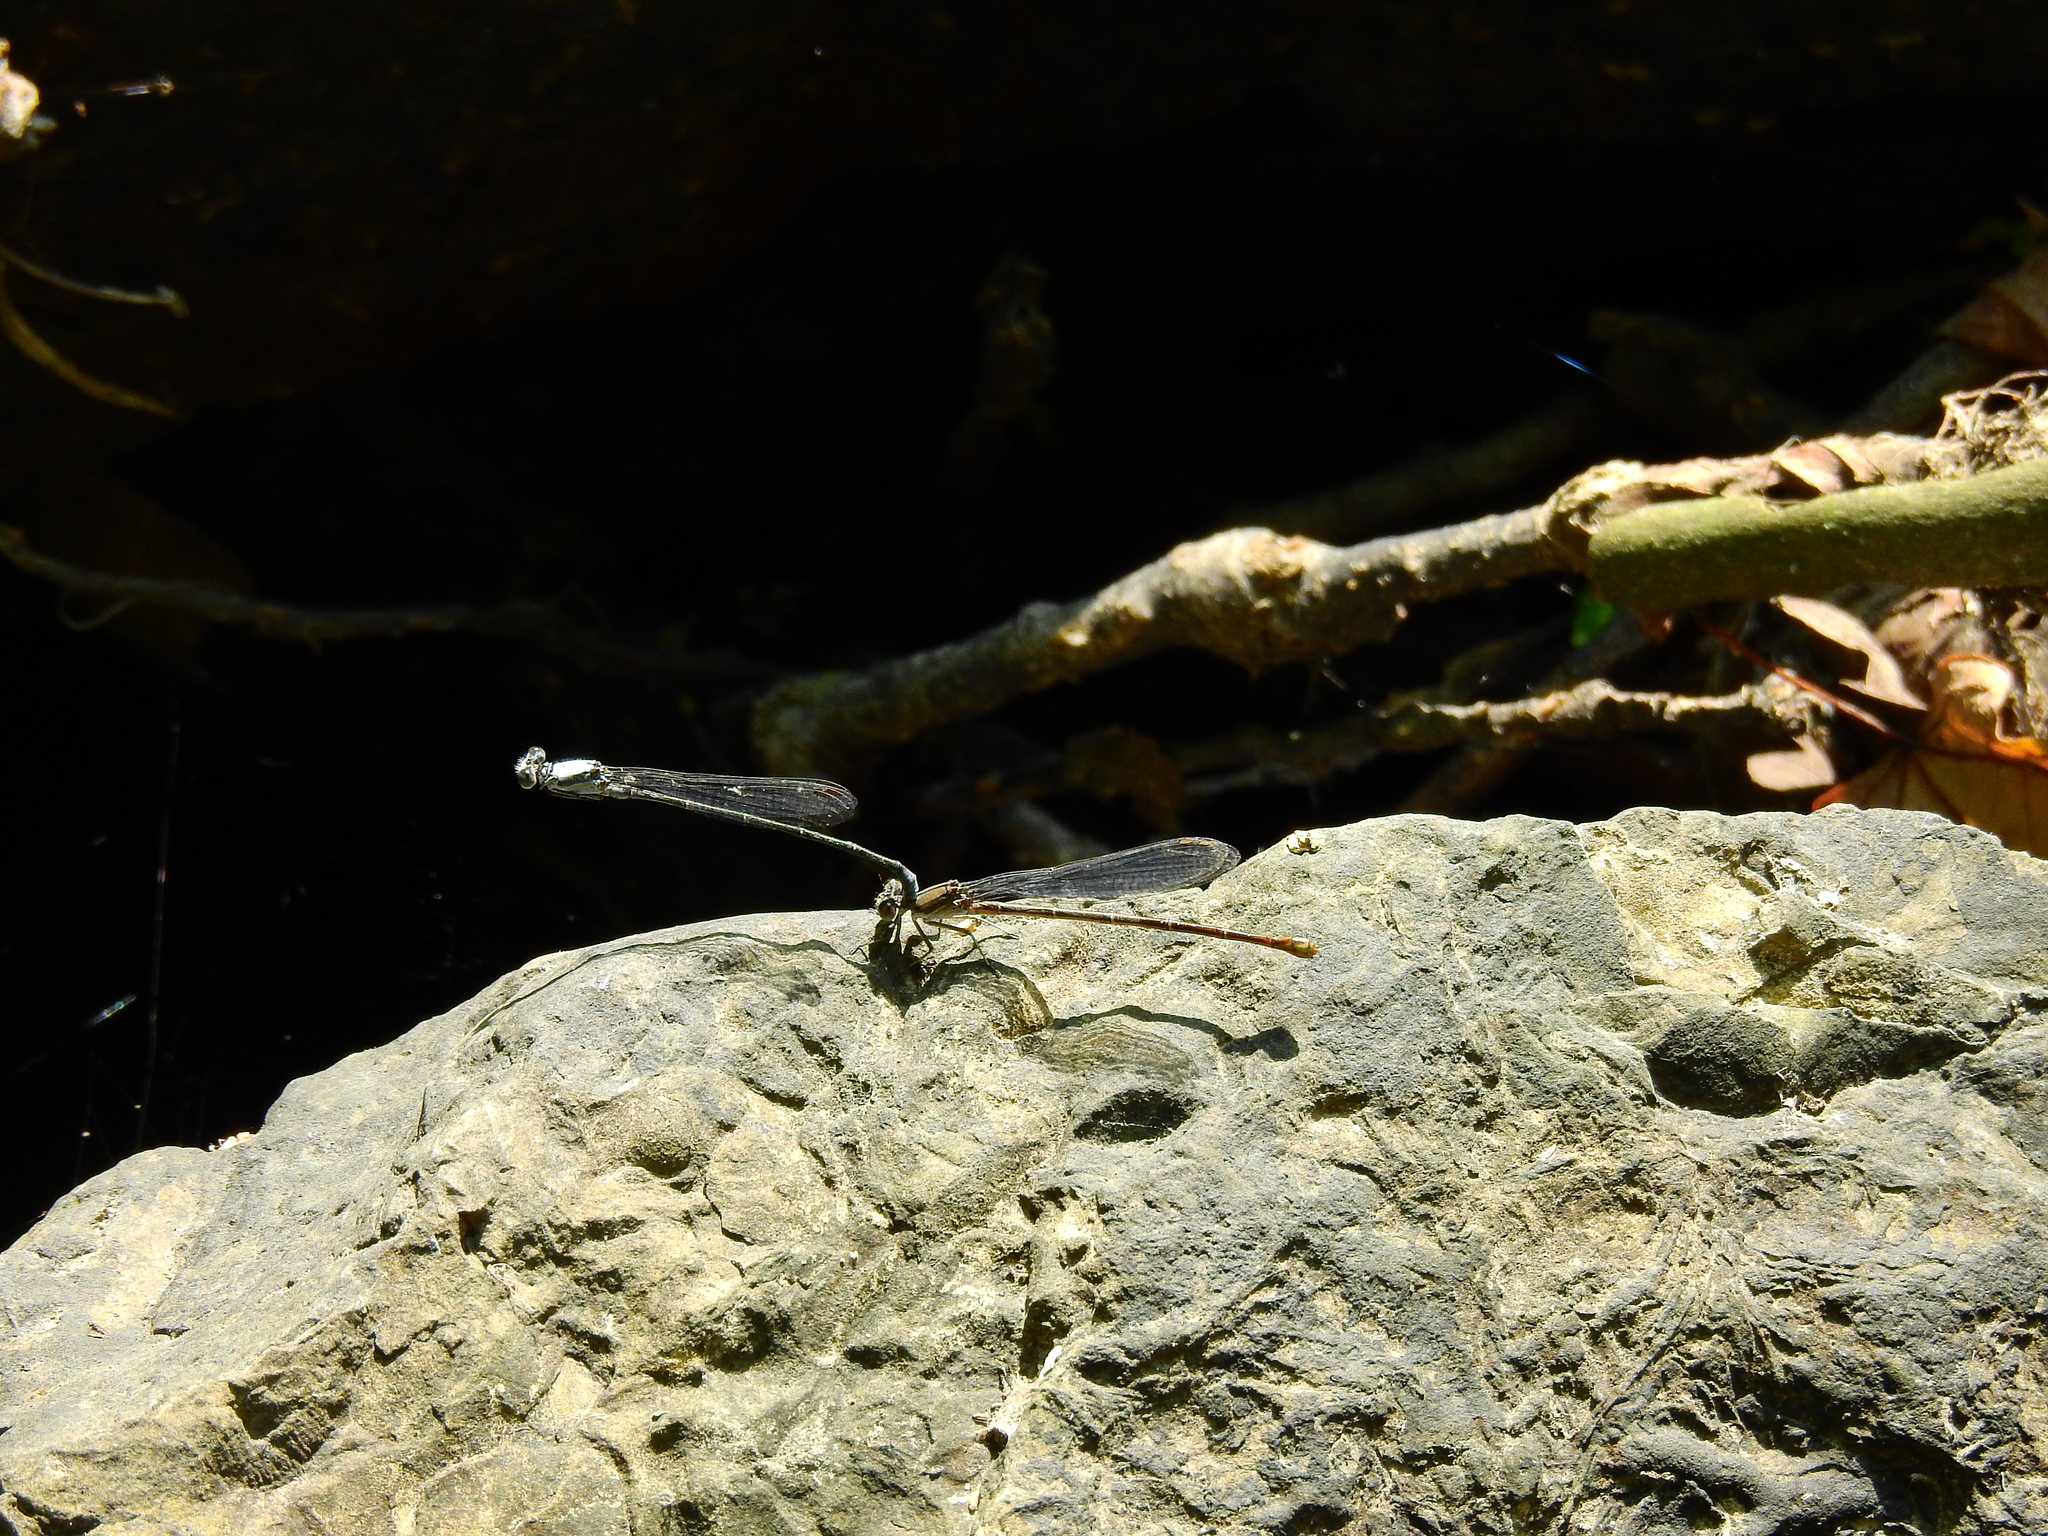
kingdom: Animalia
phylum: Arthropoda
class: Insecta
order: Odonata
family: Coenagrionidae
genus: Argia
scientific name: Argia moesta
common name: Powdered dancer
